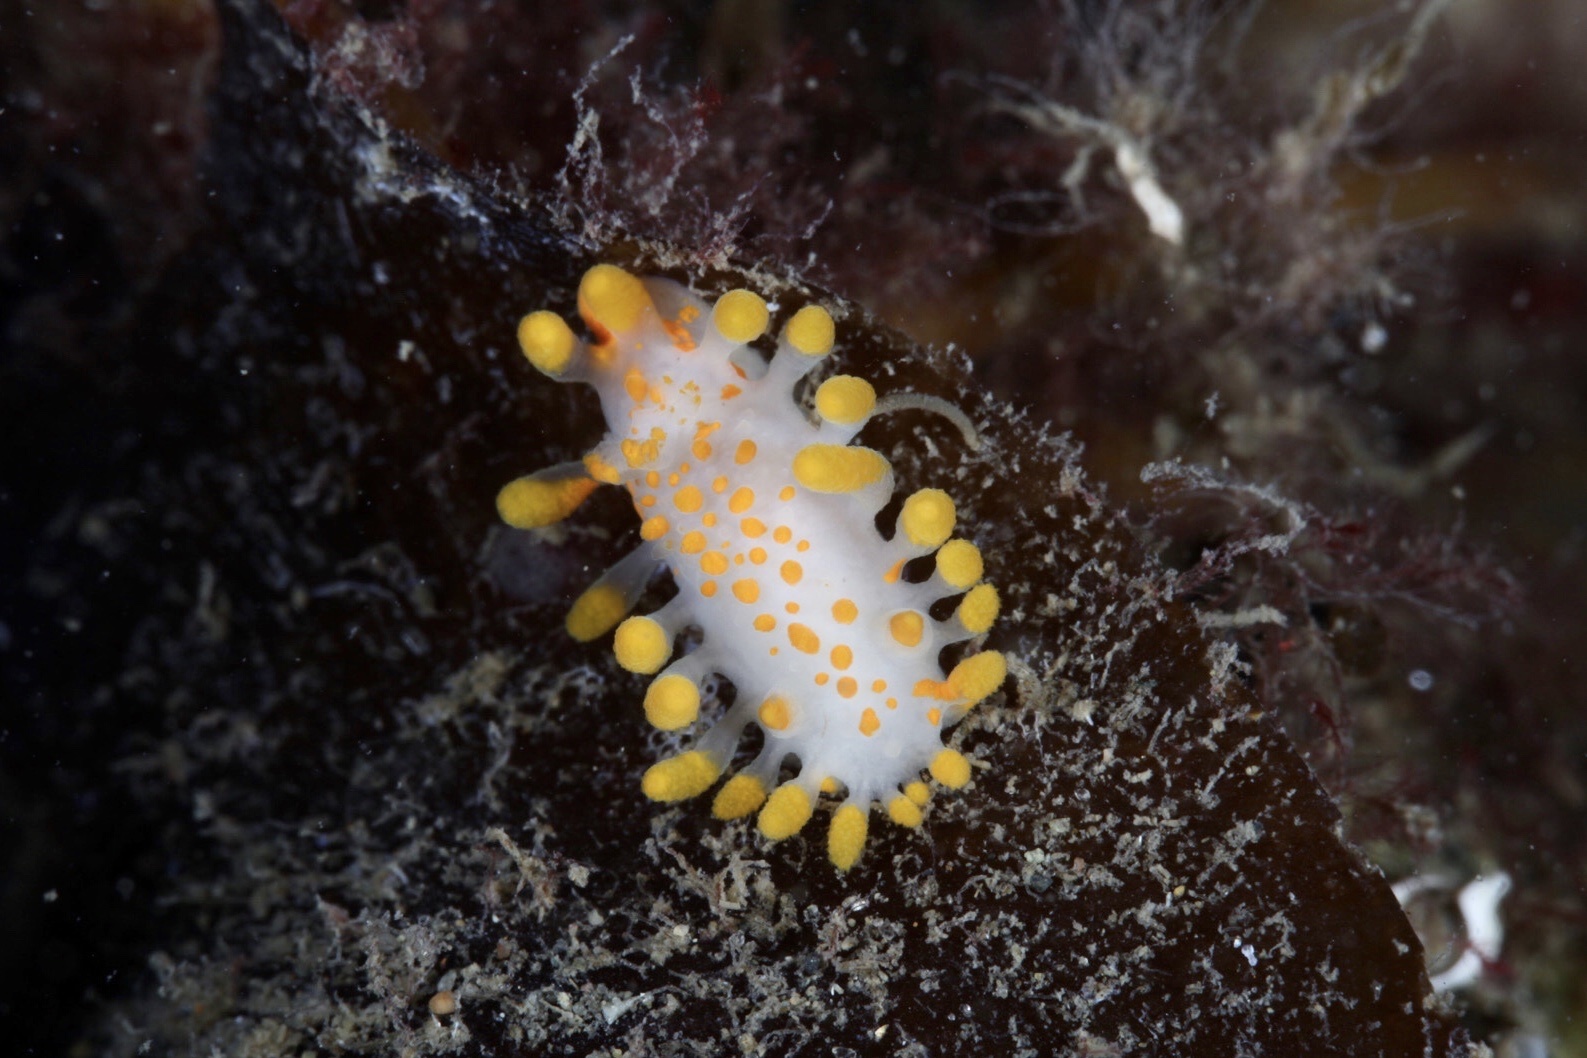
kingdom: Animalia
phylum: Mollusca
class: Gastropoda
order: Nudibranchia
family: Polyceridae
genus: Limacia
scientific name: Limacia clavigera
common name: Orange-clubbed sea slug
